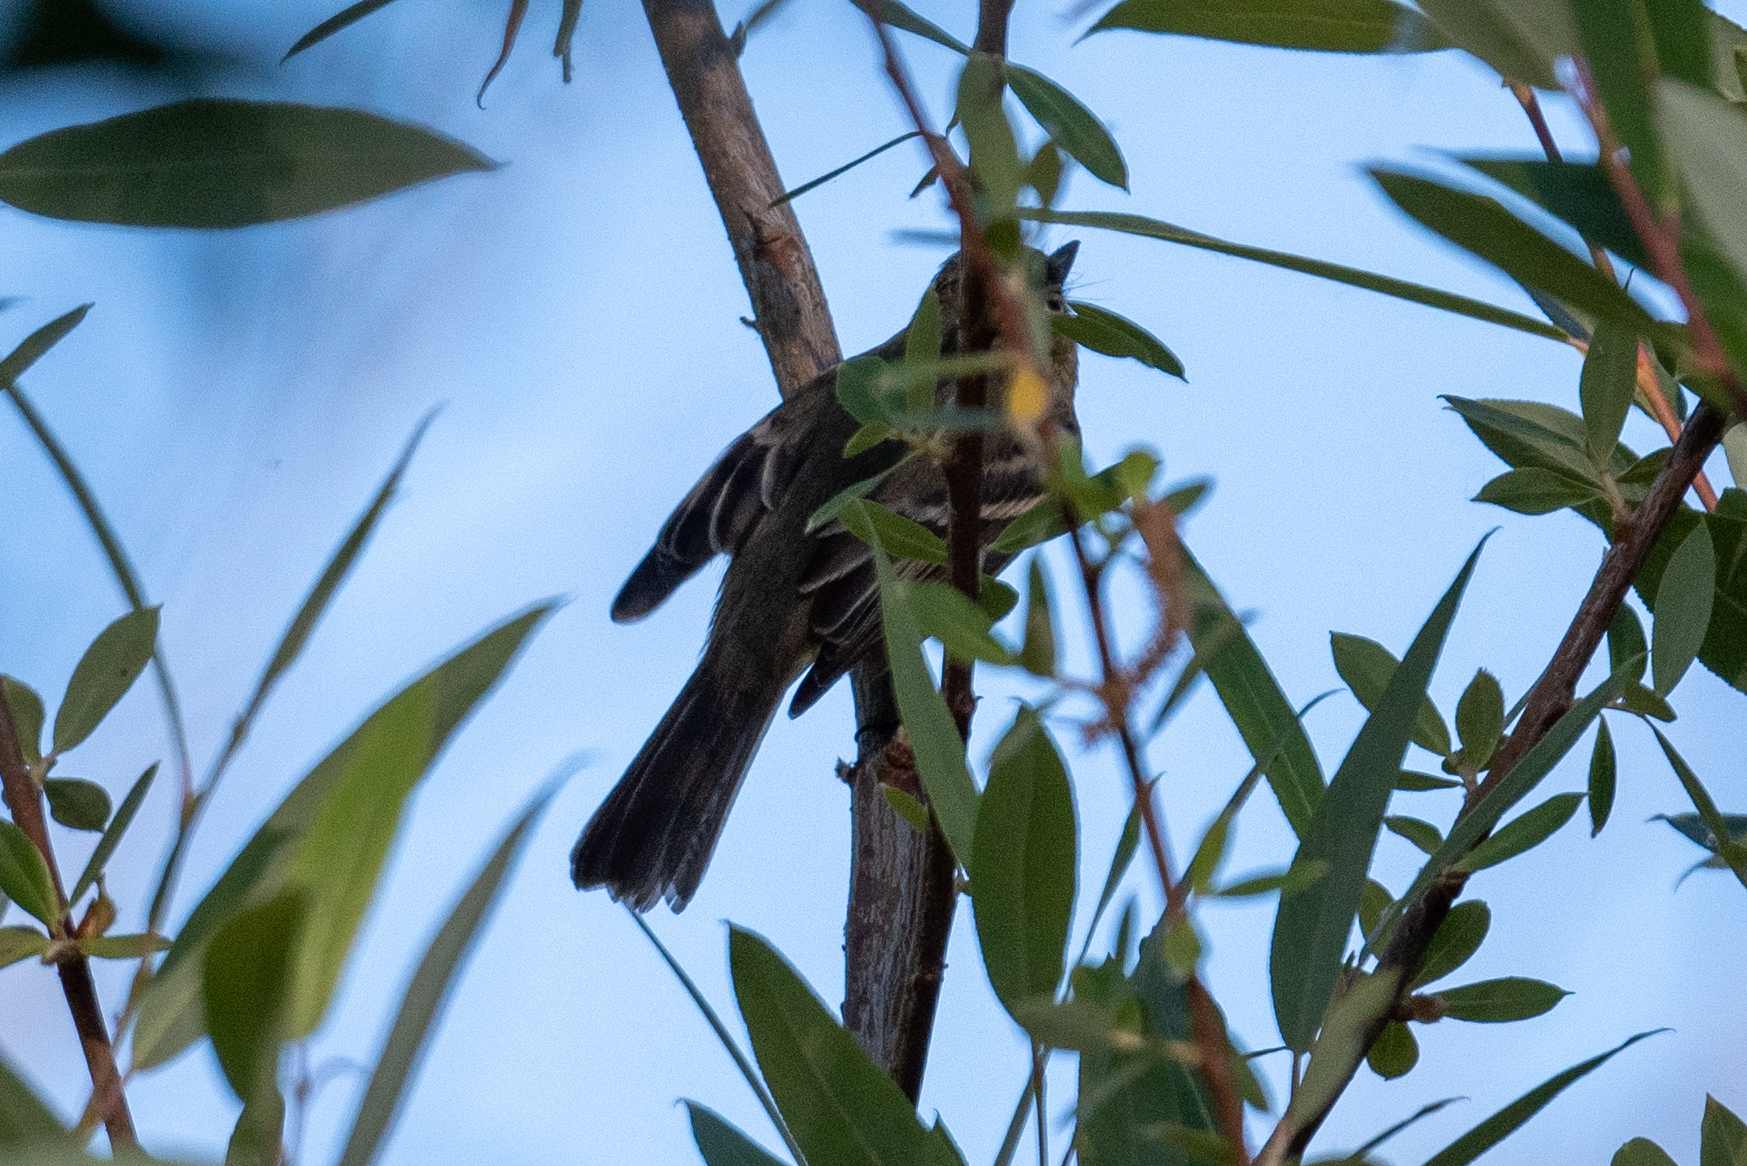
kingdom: Animalia
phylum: Chordata
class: Aves
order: Passeriformes
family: Tyrannidae
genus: Empidonax
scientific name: Empidonax difficilis
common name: Pacific-slope flycatcher
